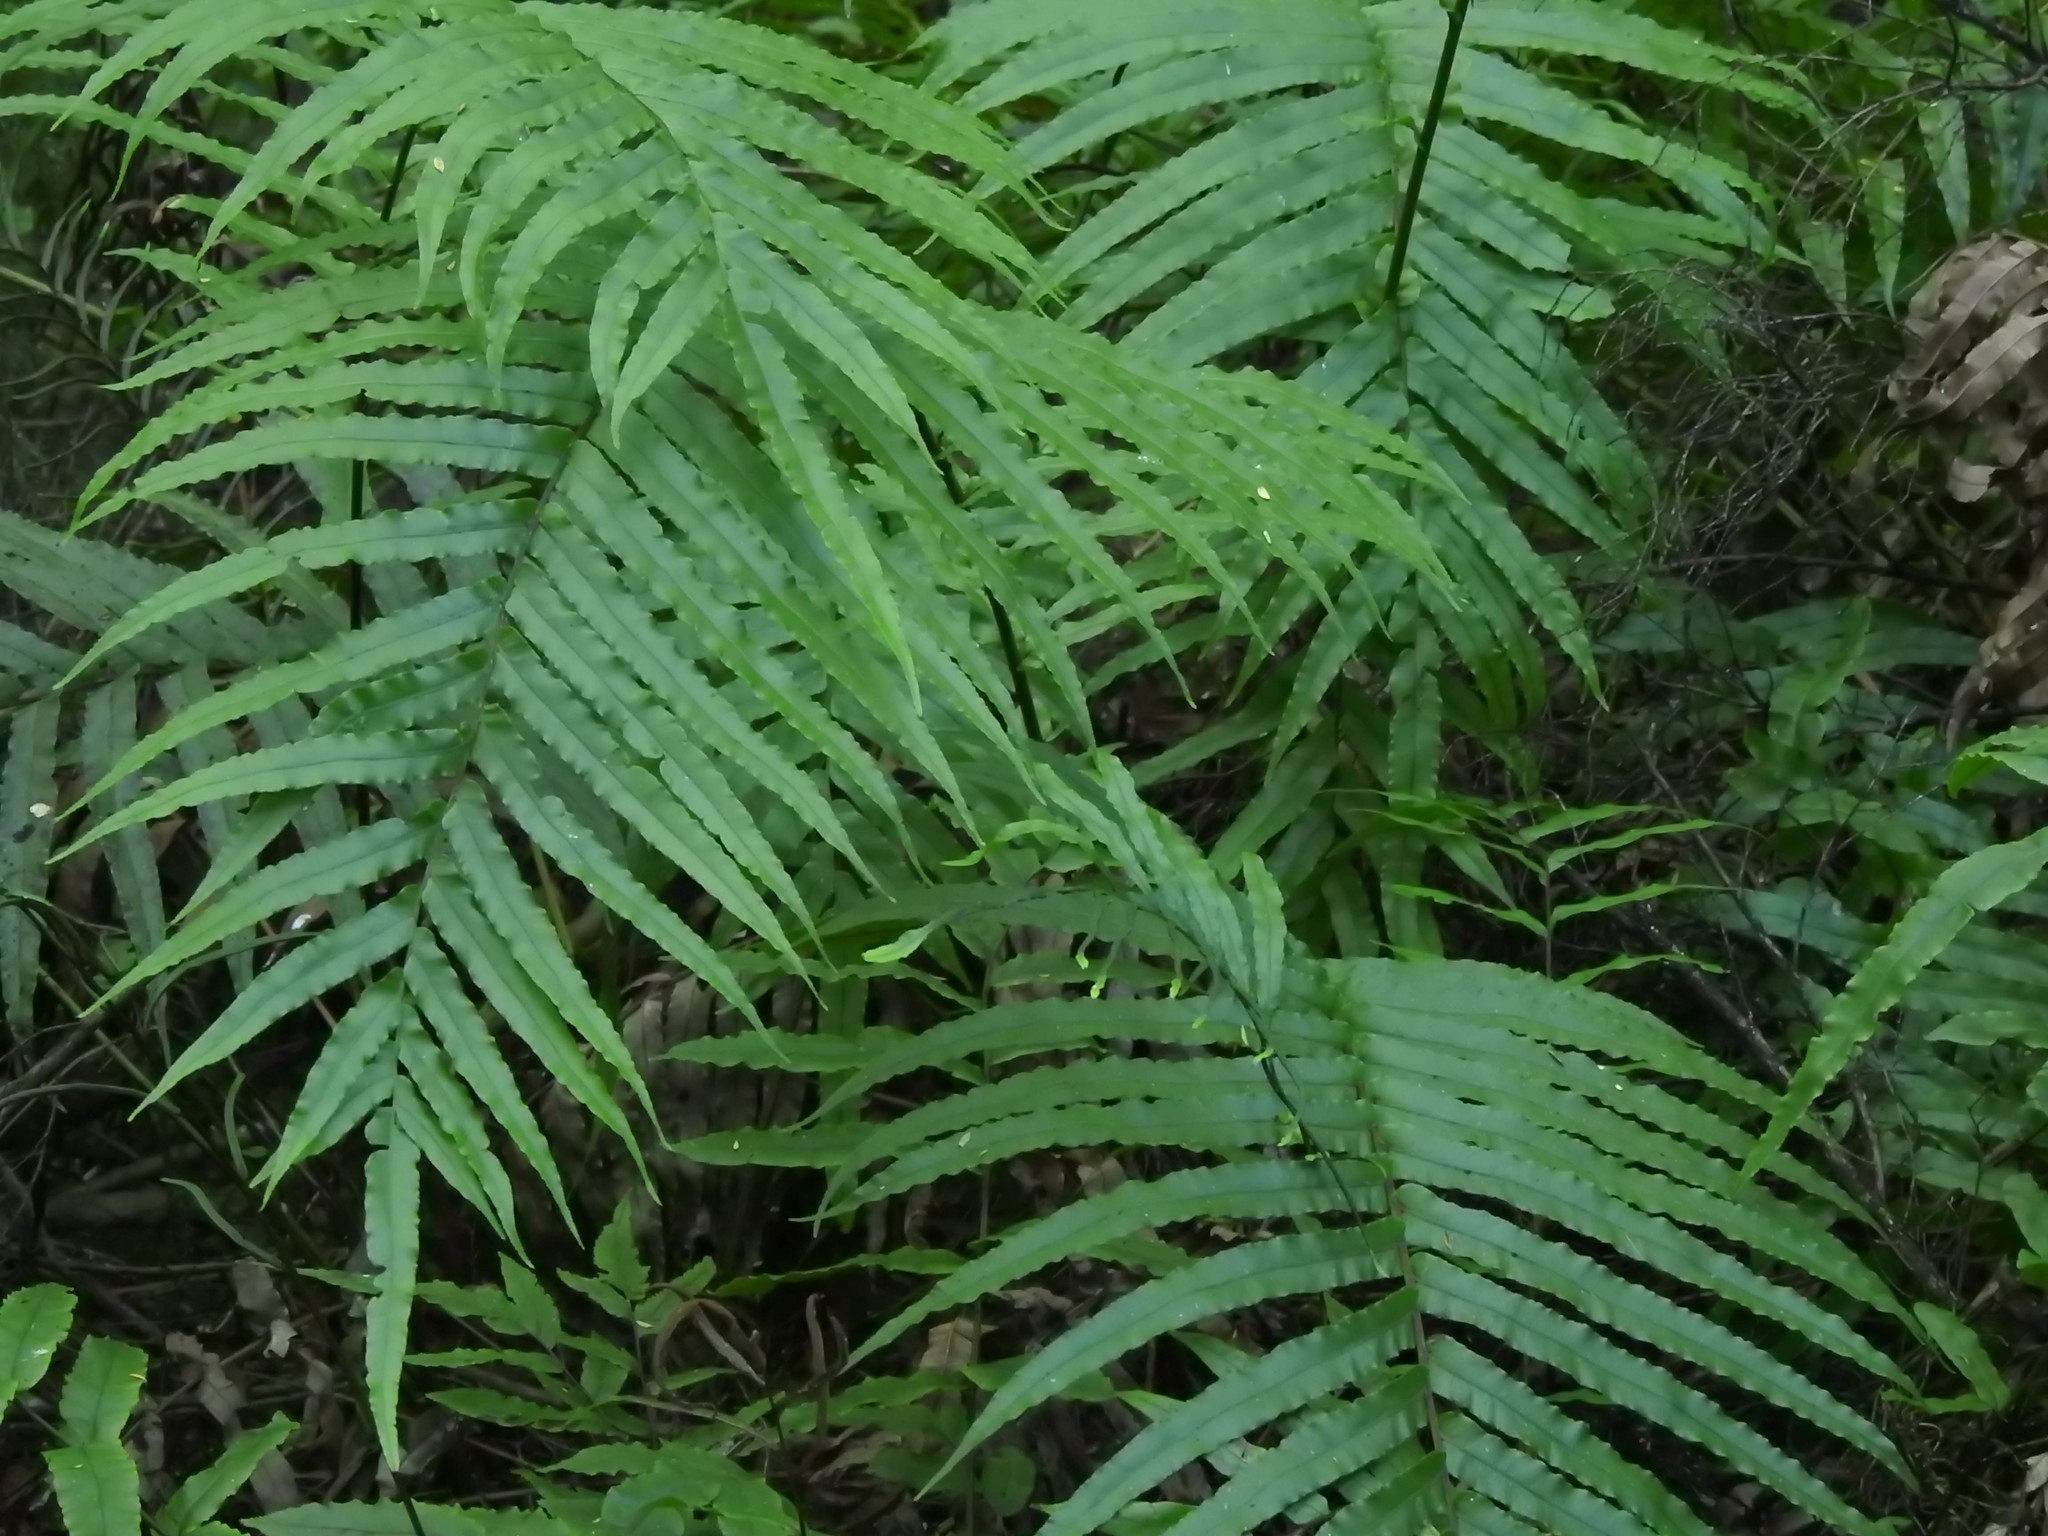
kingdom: Plantae
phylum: Tracheophyta
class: Polypodiopsida
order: Polypodiales
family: Blechnaceae
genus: Parablechnum
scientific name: Parablechnum novae-zelandiae
